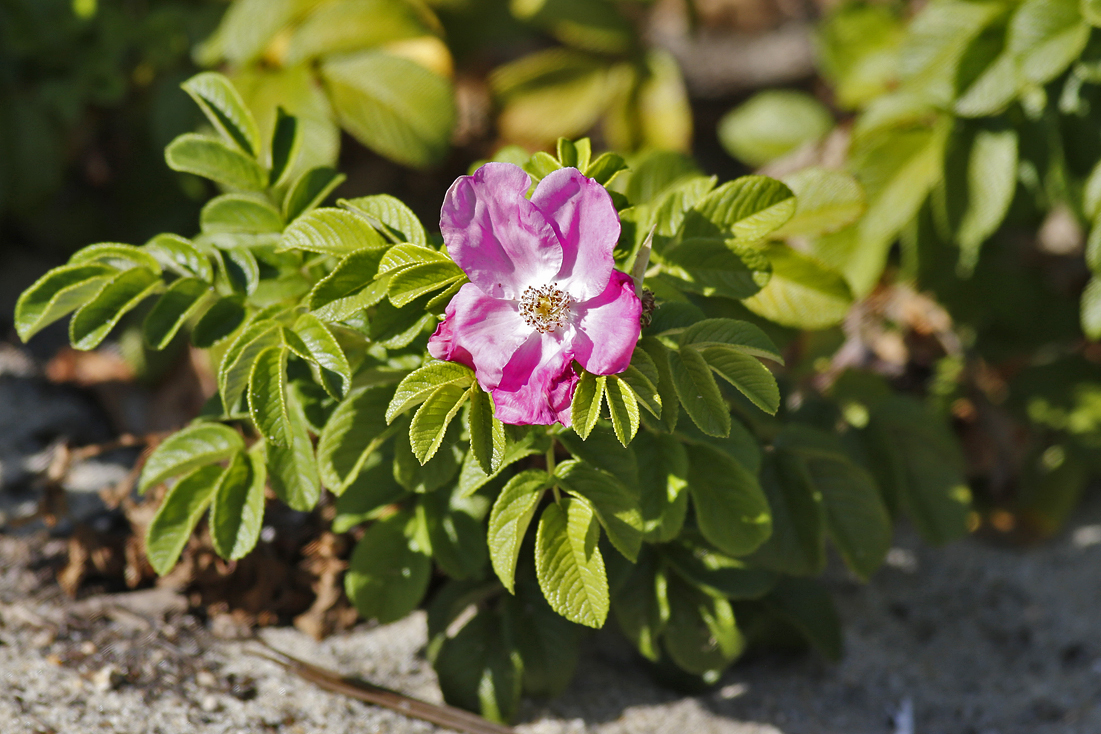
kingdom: Plantae
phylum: Tracheophyta
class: Magnoliopsida
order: Rosales
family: Rosaceae
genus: Rosa
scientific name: Rosa rugosa
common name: Japanese rose
